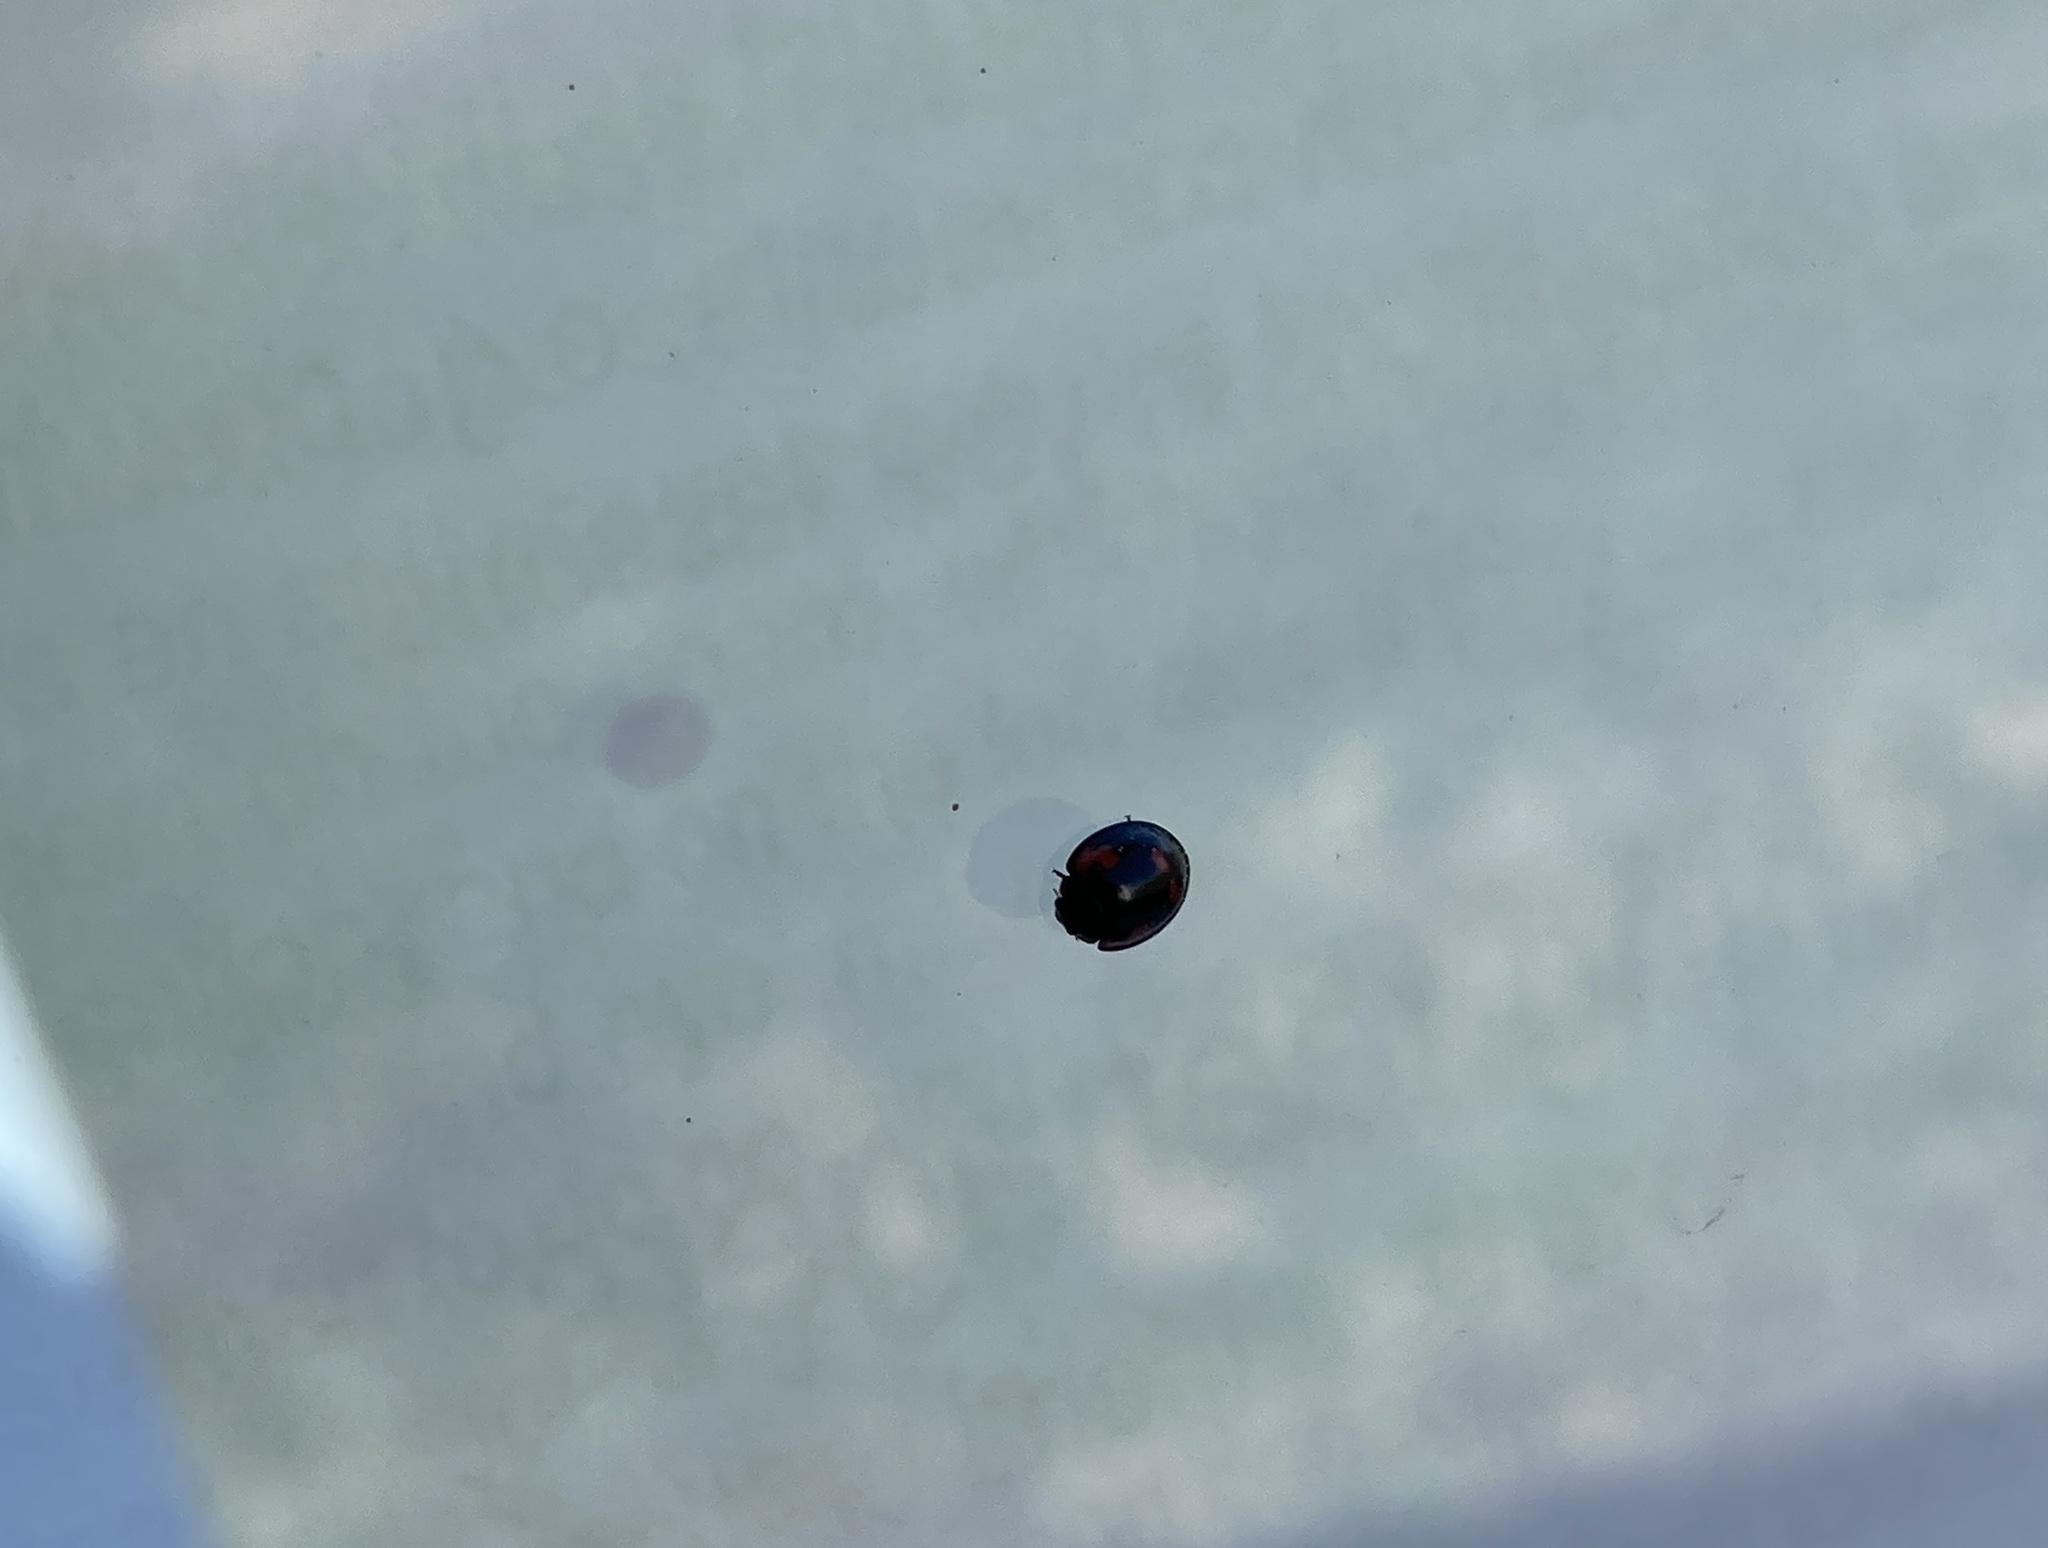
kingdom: Animalia
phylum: Arthropoda
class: Insecta
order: Coleoptera
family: Coccinellidae
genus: Brumus
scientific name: Brumus quadripustulatus
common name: Ladybird beetle
